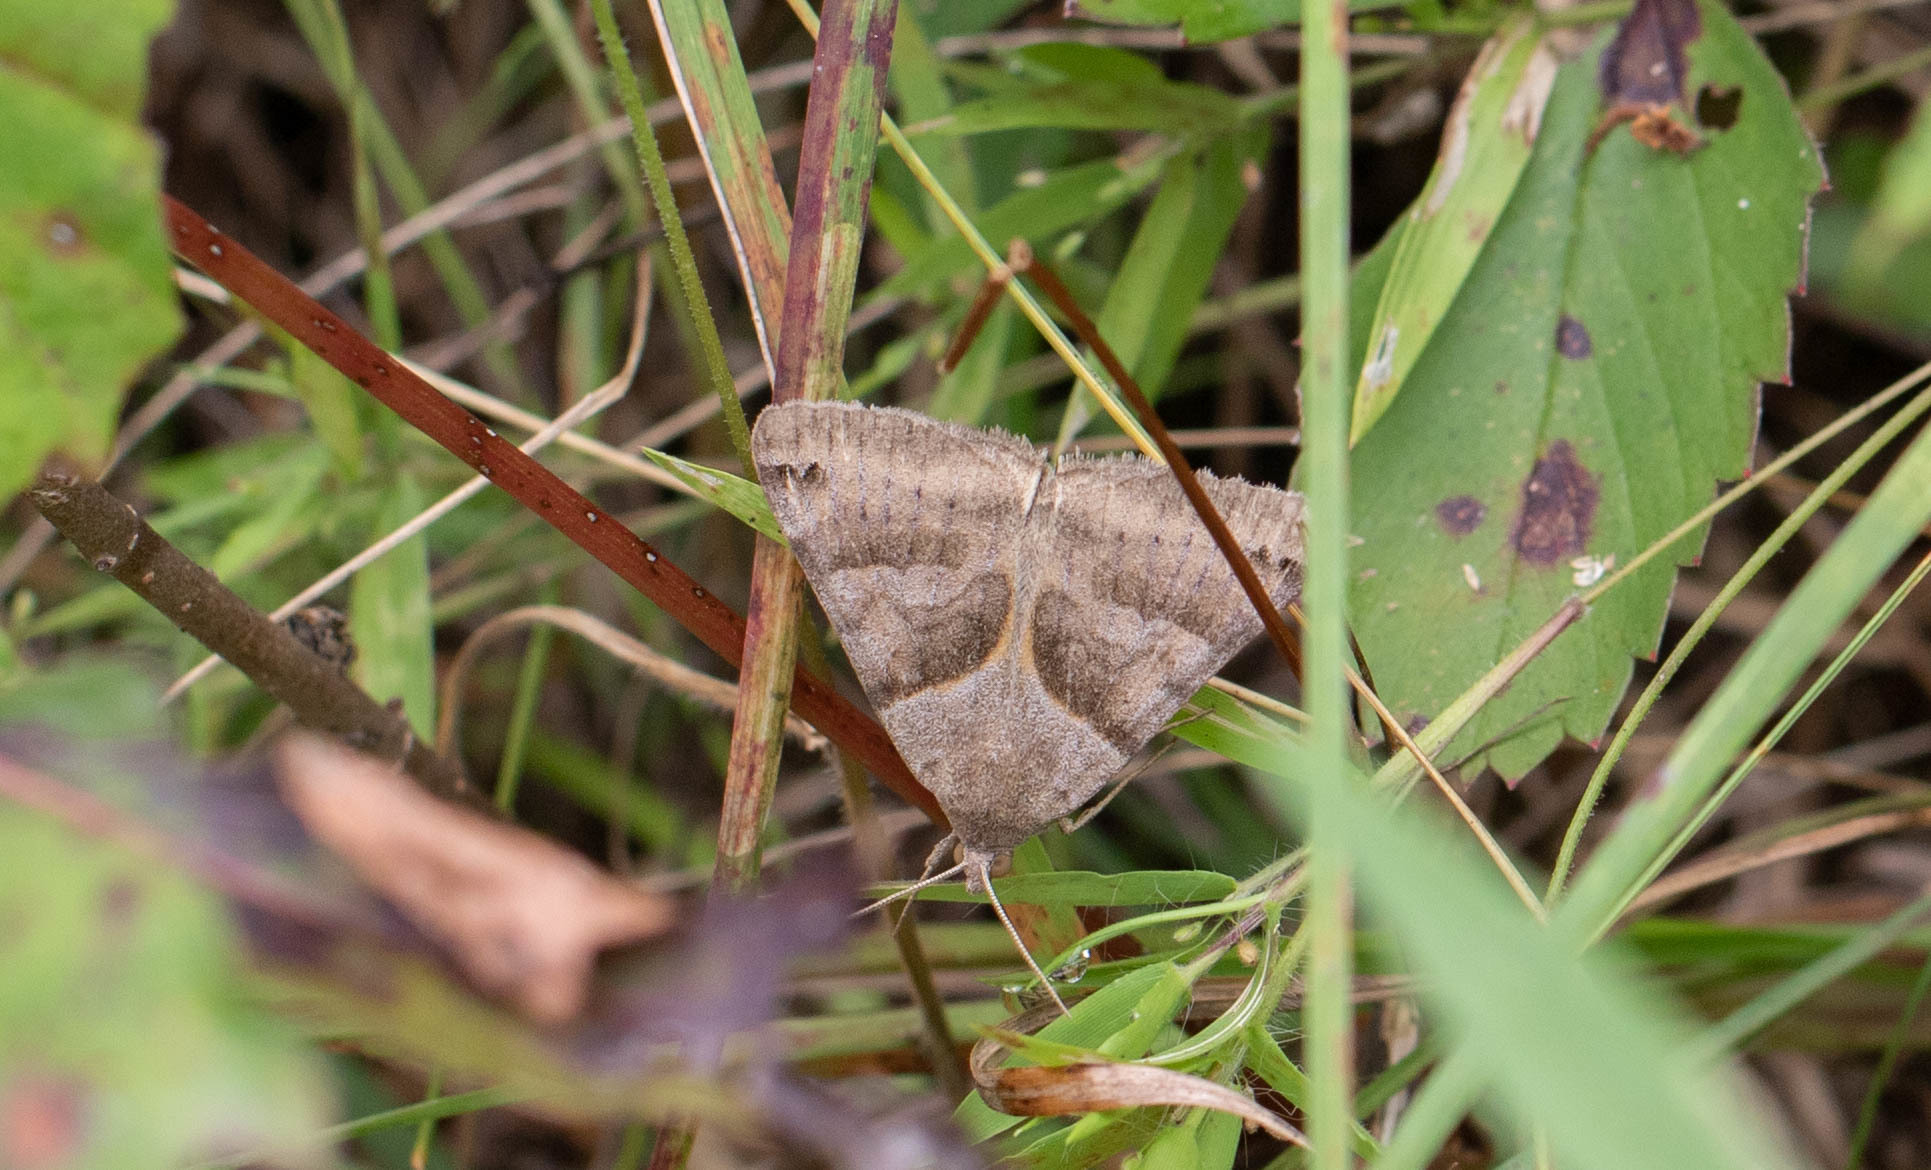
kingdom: Animalia
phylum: Arthropoda
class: Insecta
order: Lepidoptera
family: Erebidae
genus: Caenurgina
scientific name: Caenurgina erechtea
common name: Forage looper moth
